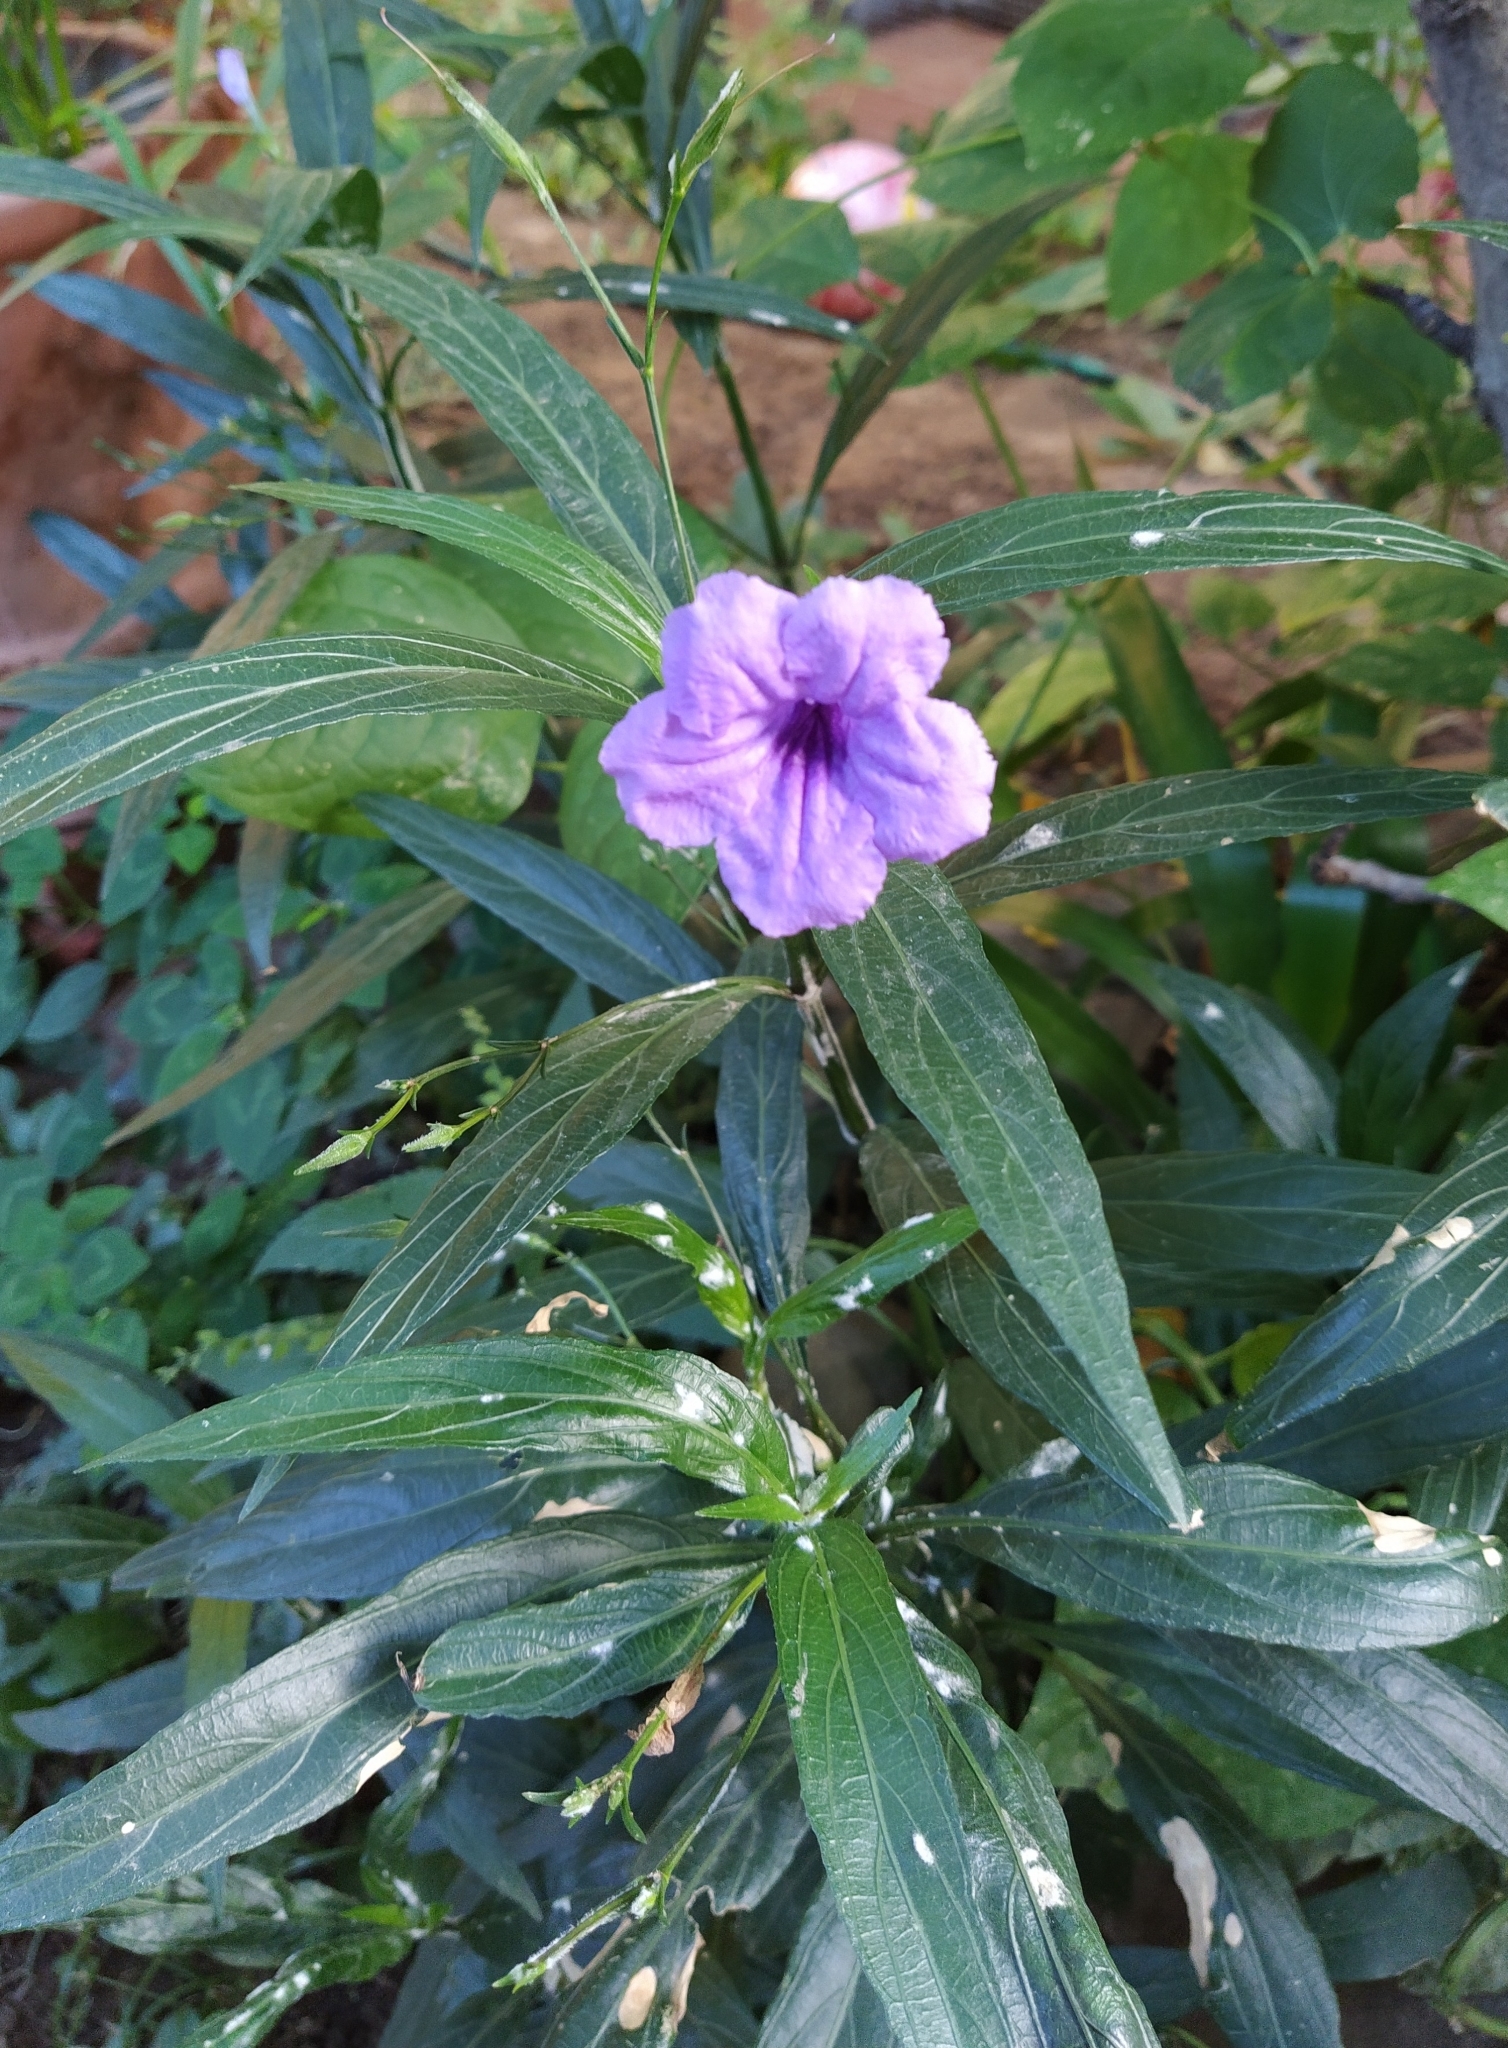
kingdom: Plantae
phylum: Tracheophyta
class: Magnoliopsida
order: Lamiales
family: Acanthaceae
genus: Ruellia
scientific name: Ruellia simplex
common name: Softseed wild petunia
